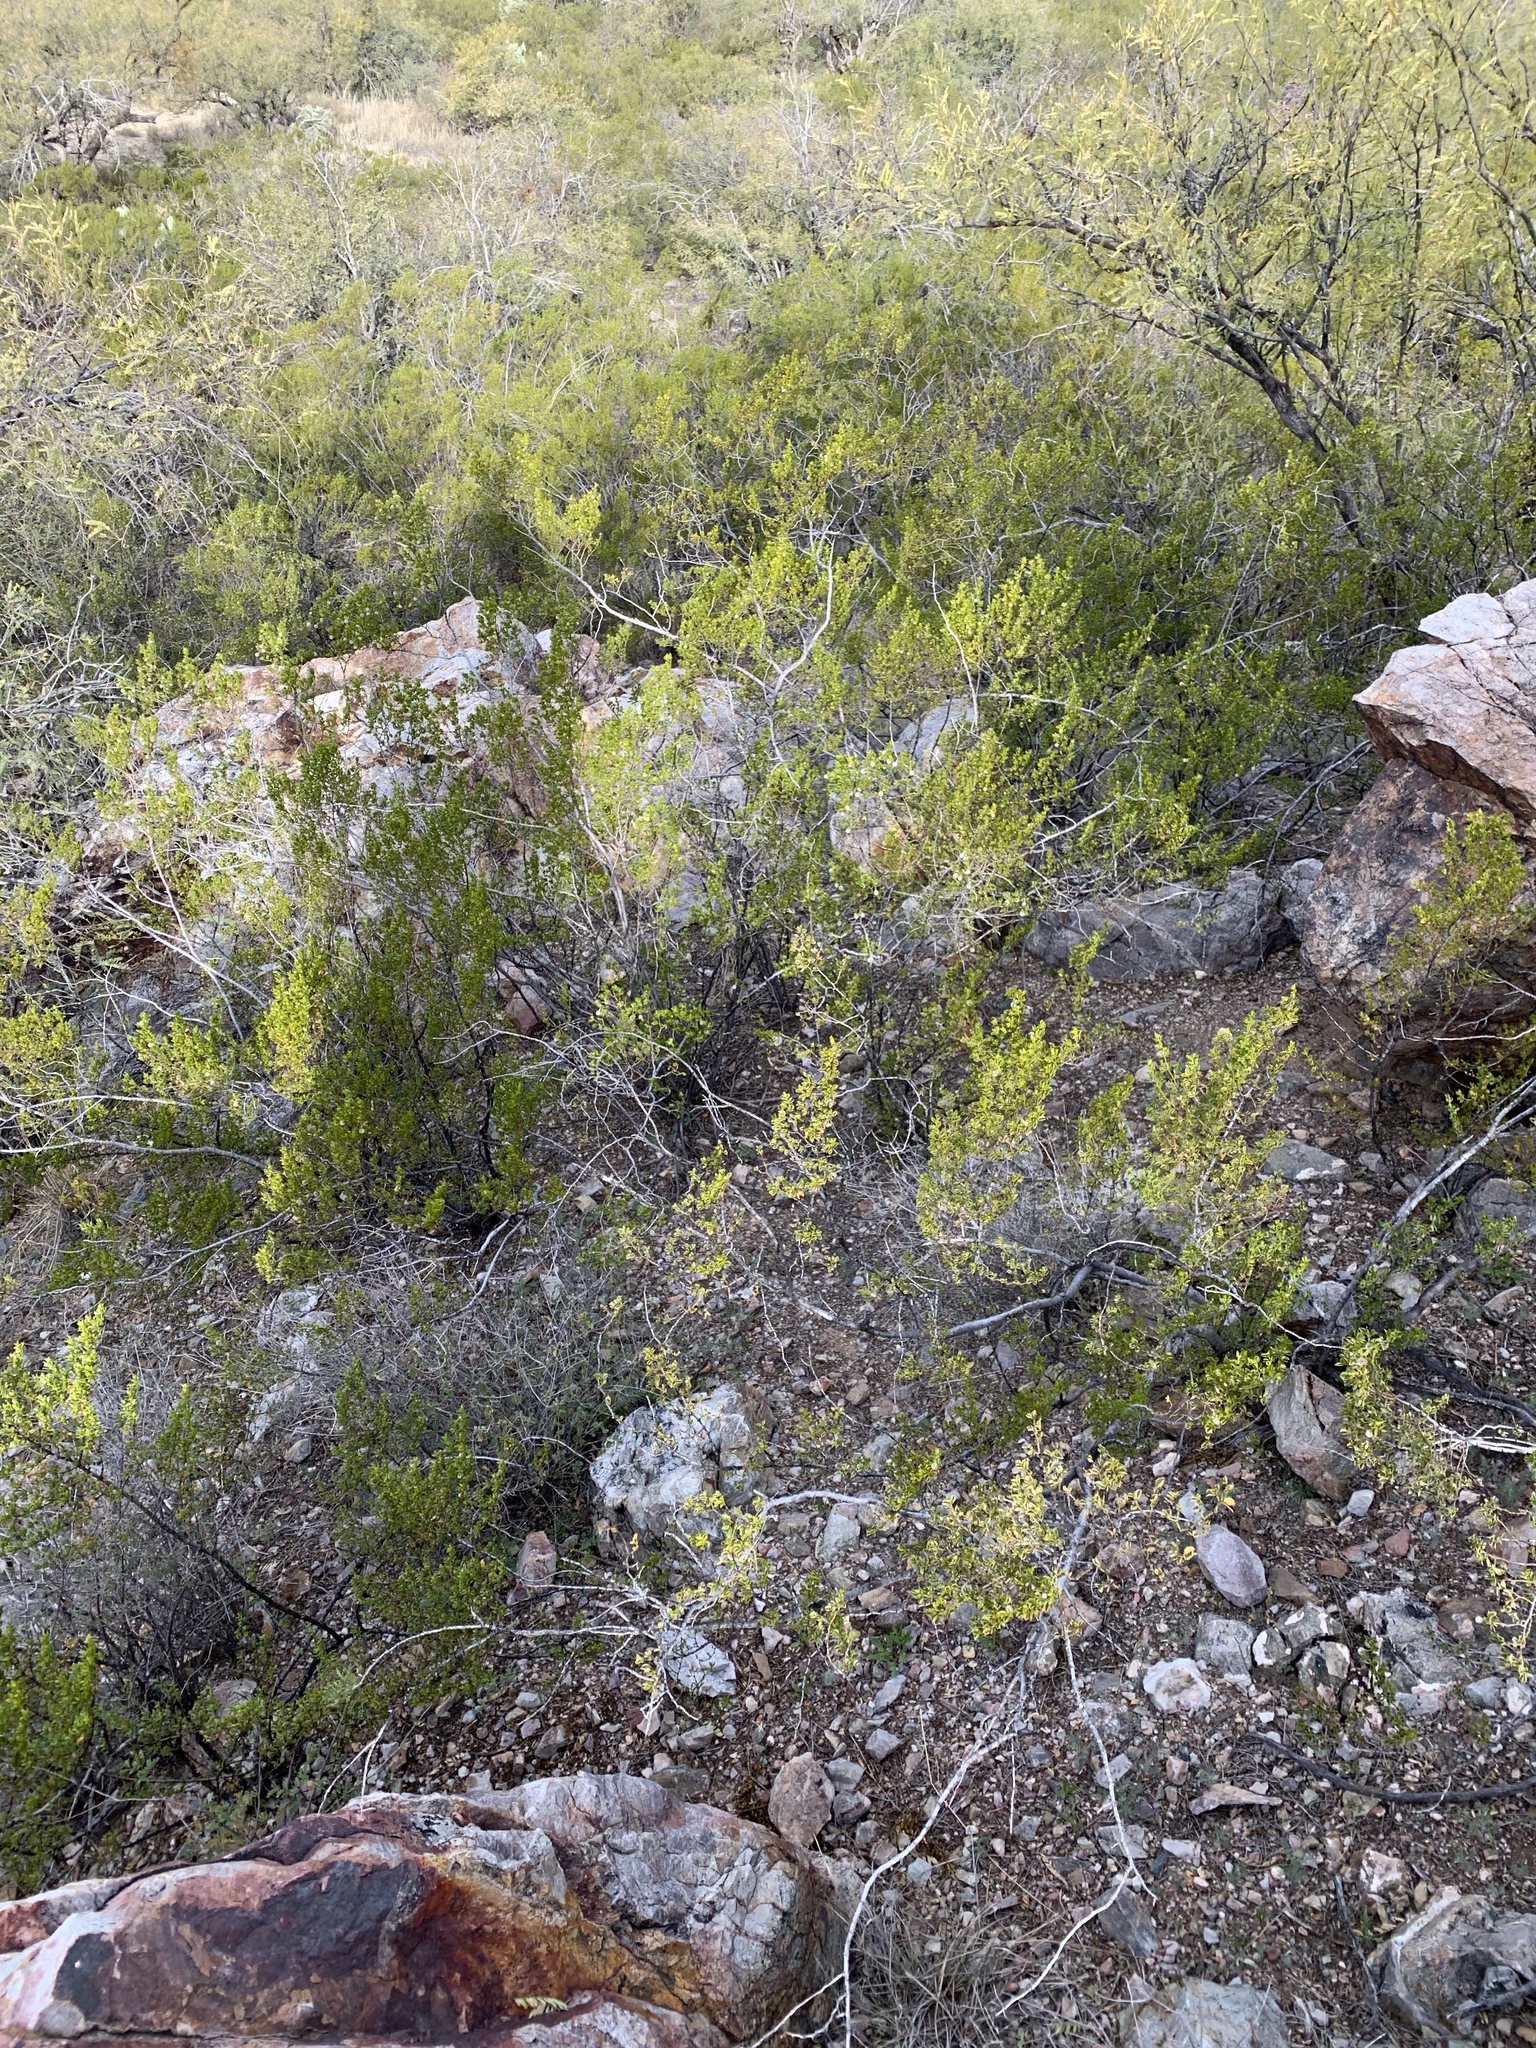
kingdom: Plantae
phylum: Tracheophyta
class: Magnoliopsida
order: Zygophyllales
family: Zygophyllaceae
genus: Larrea
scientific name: Larrea tridentata
